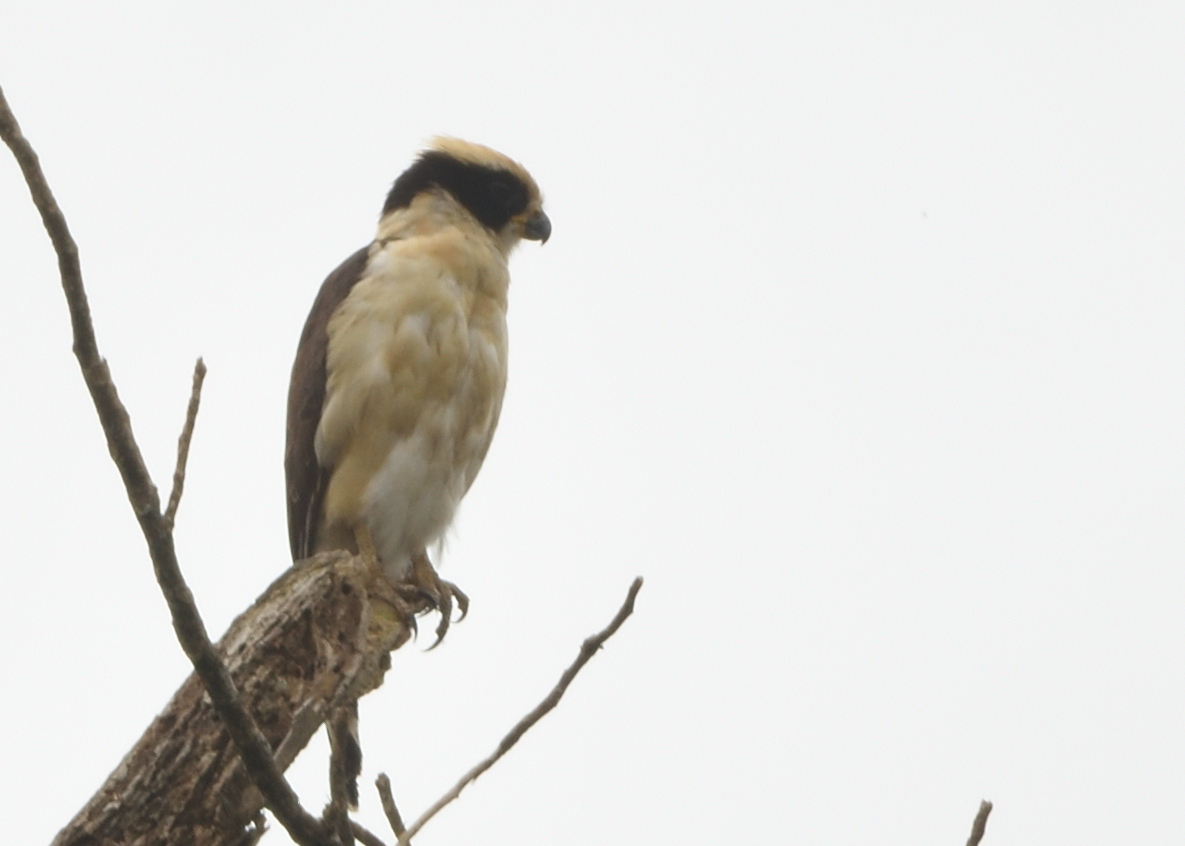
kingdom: Animalia
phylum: Chordata
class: Aves
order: Falconiformes
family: Falconidae
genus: Herpetotheres
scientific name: Herpetotheres cachinnans
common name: Laughing falcon
